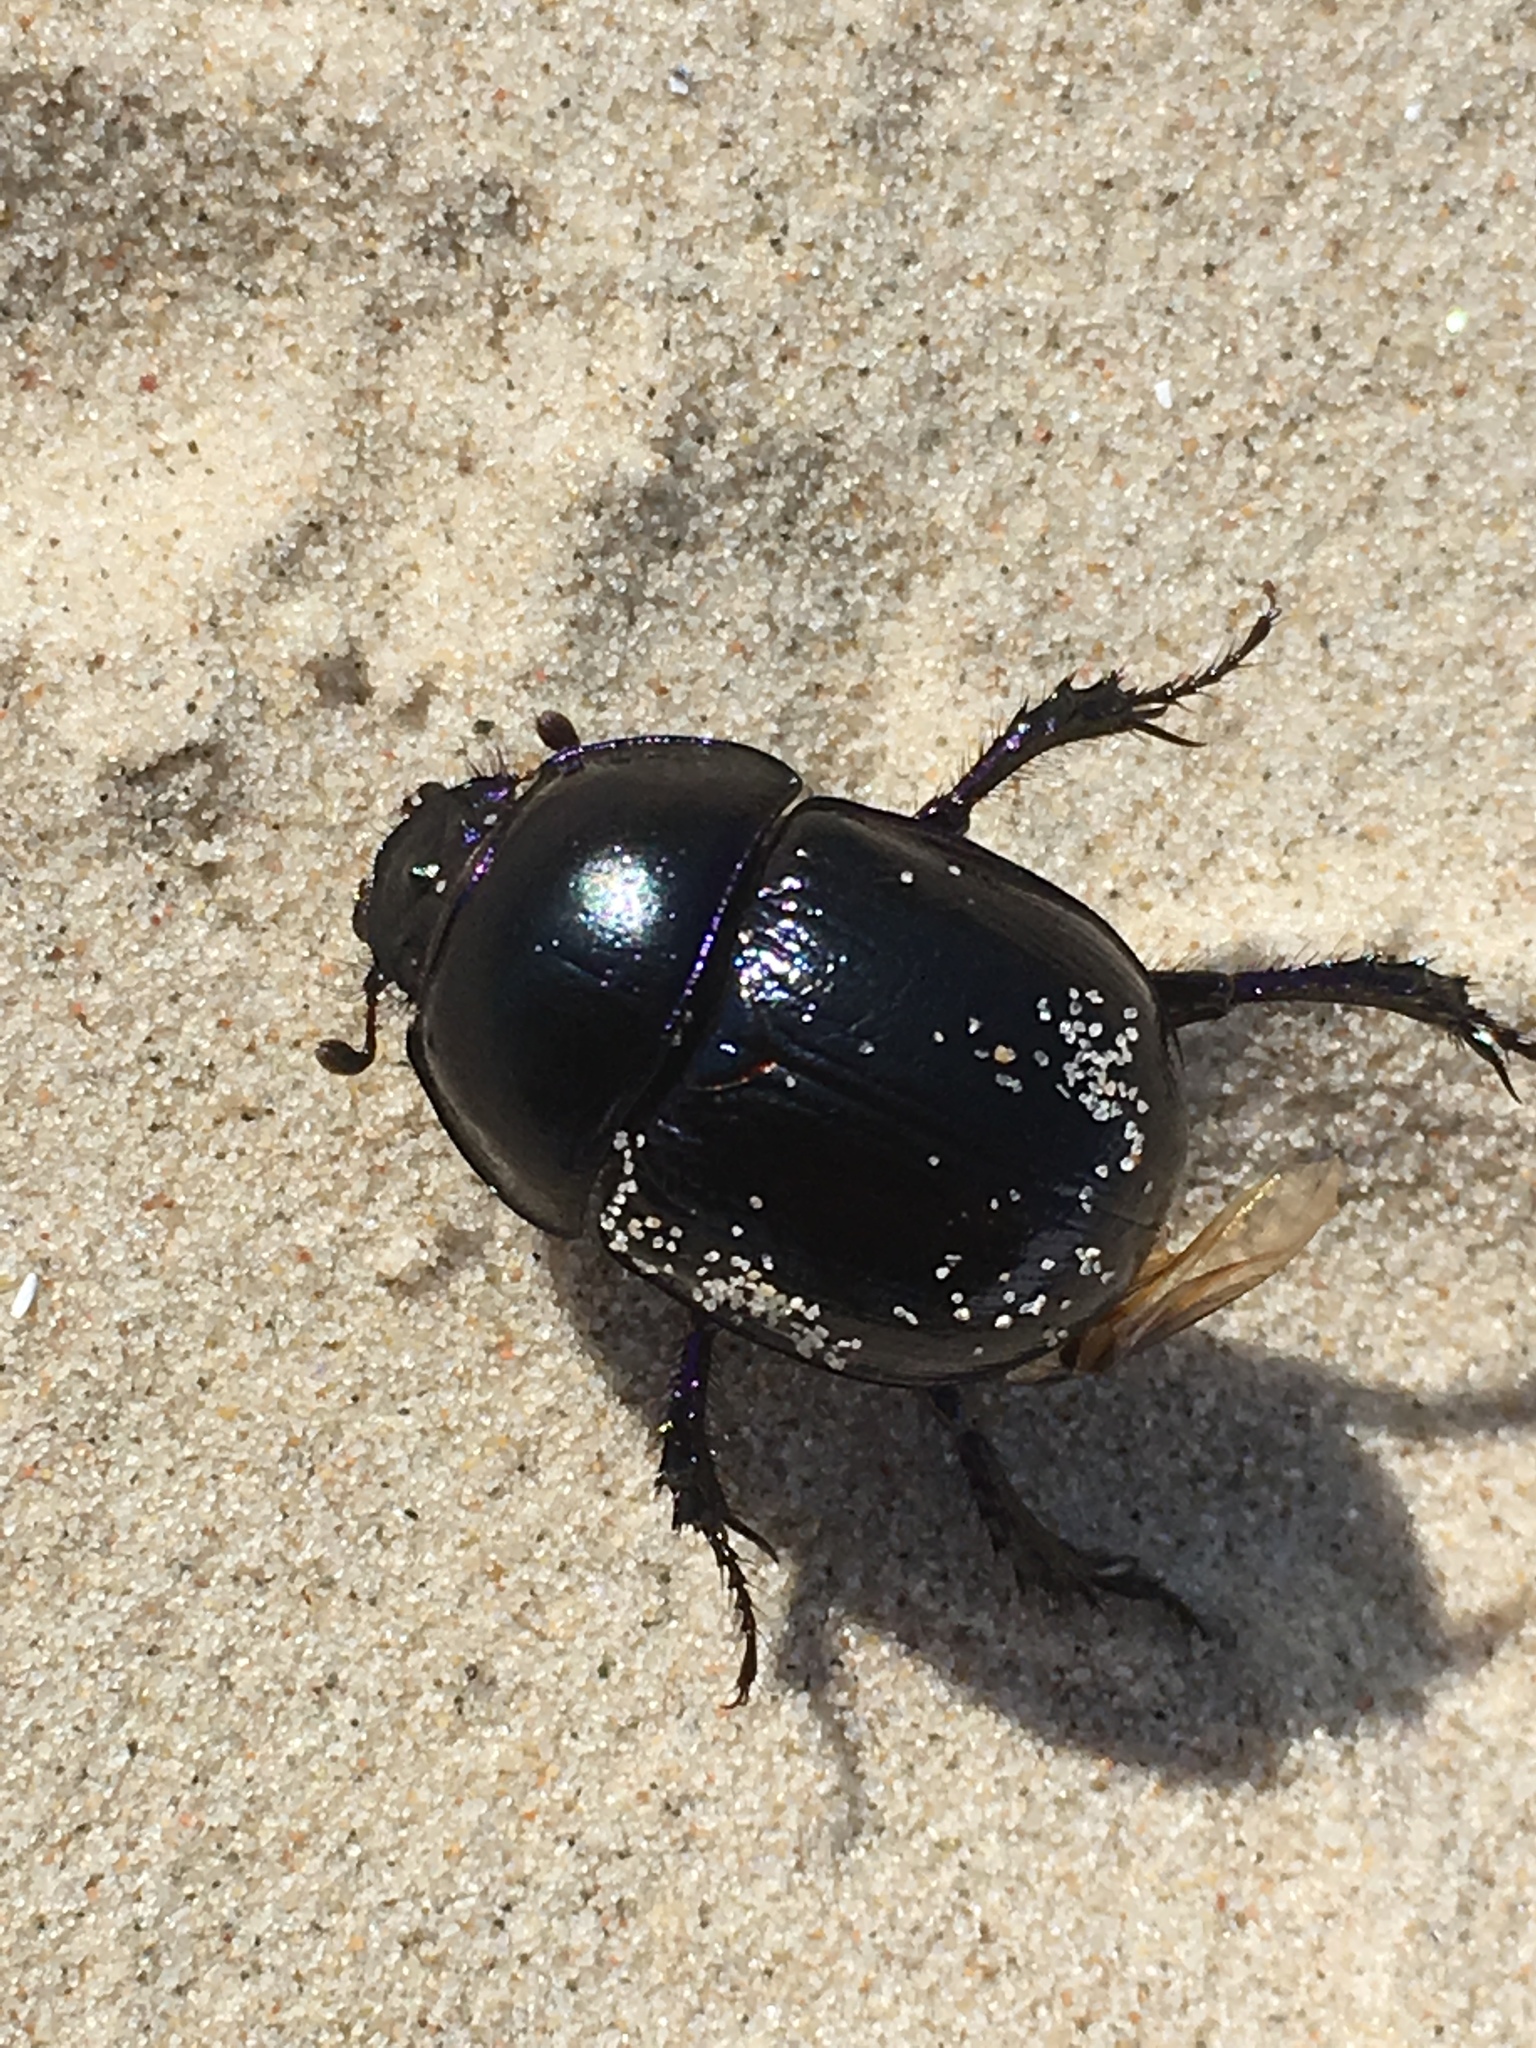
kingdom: Animalia
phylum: Arthropoda
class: Insecta
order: Coleoptera
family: Geotrupidae
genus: Anoplotrupes
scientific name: Anoplotrupes stercorosus
